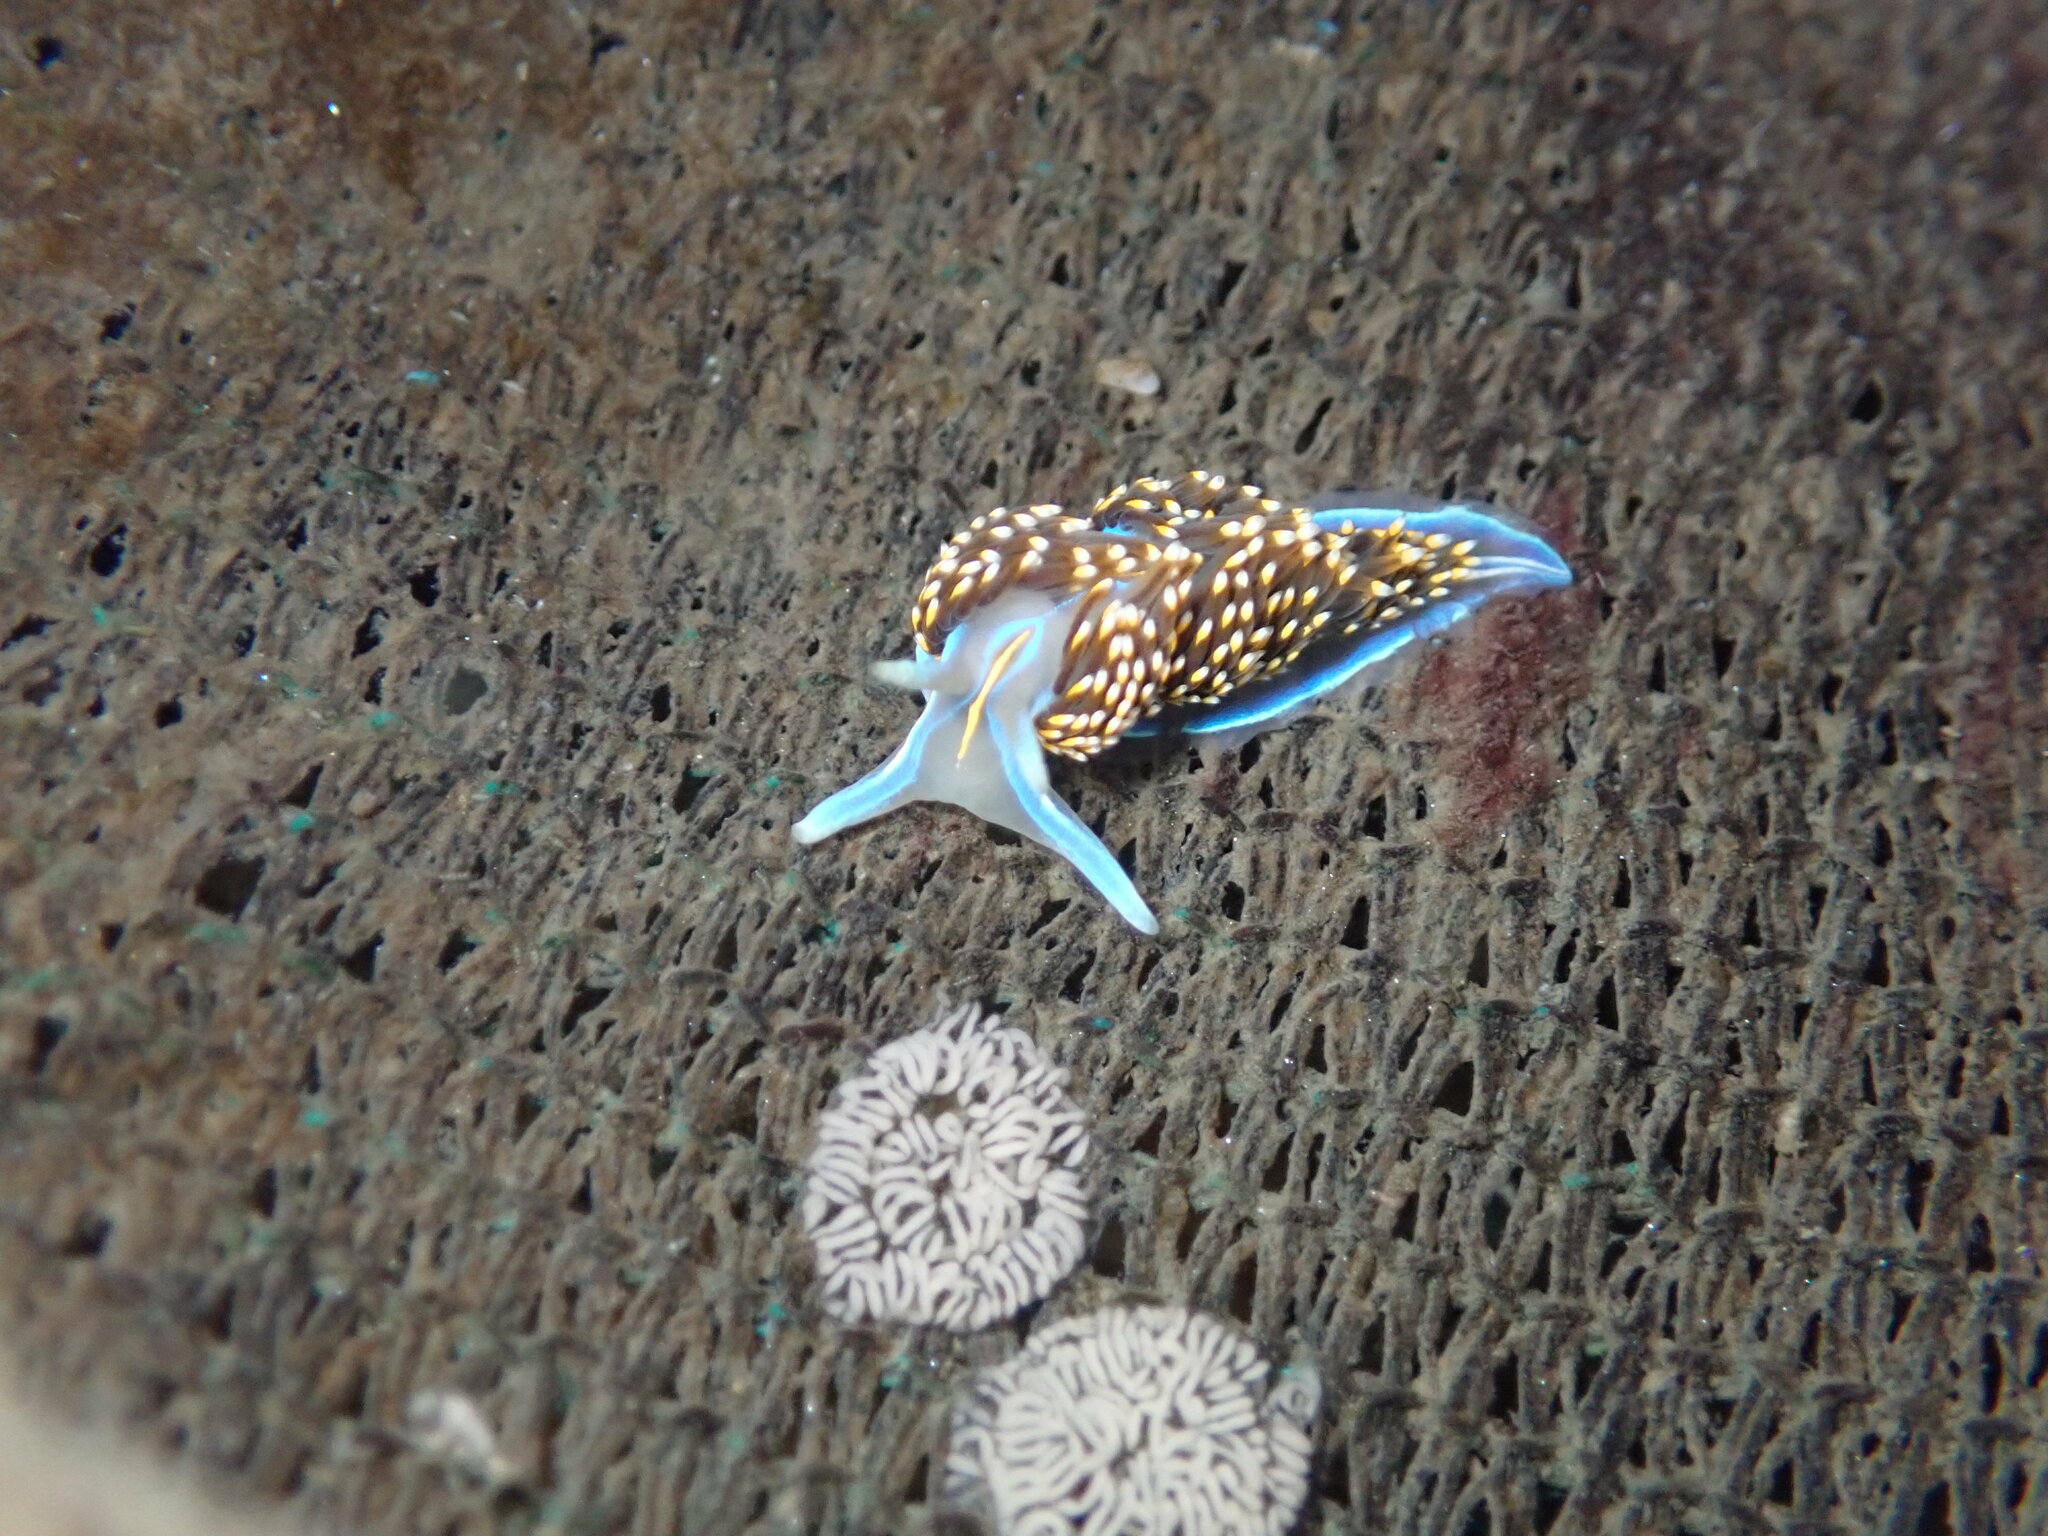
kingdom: Animalia
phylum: Mollusca
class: Gastropoda
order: Nudibranchia
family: Myrrhinidae
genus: Hermissenda
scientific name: Hermissenda opalescens
